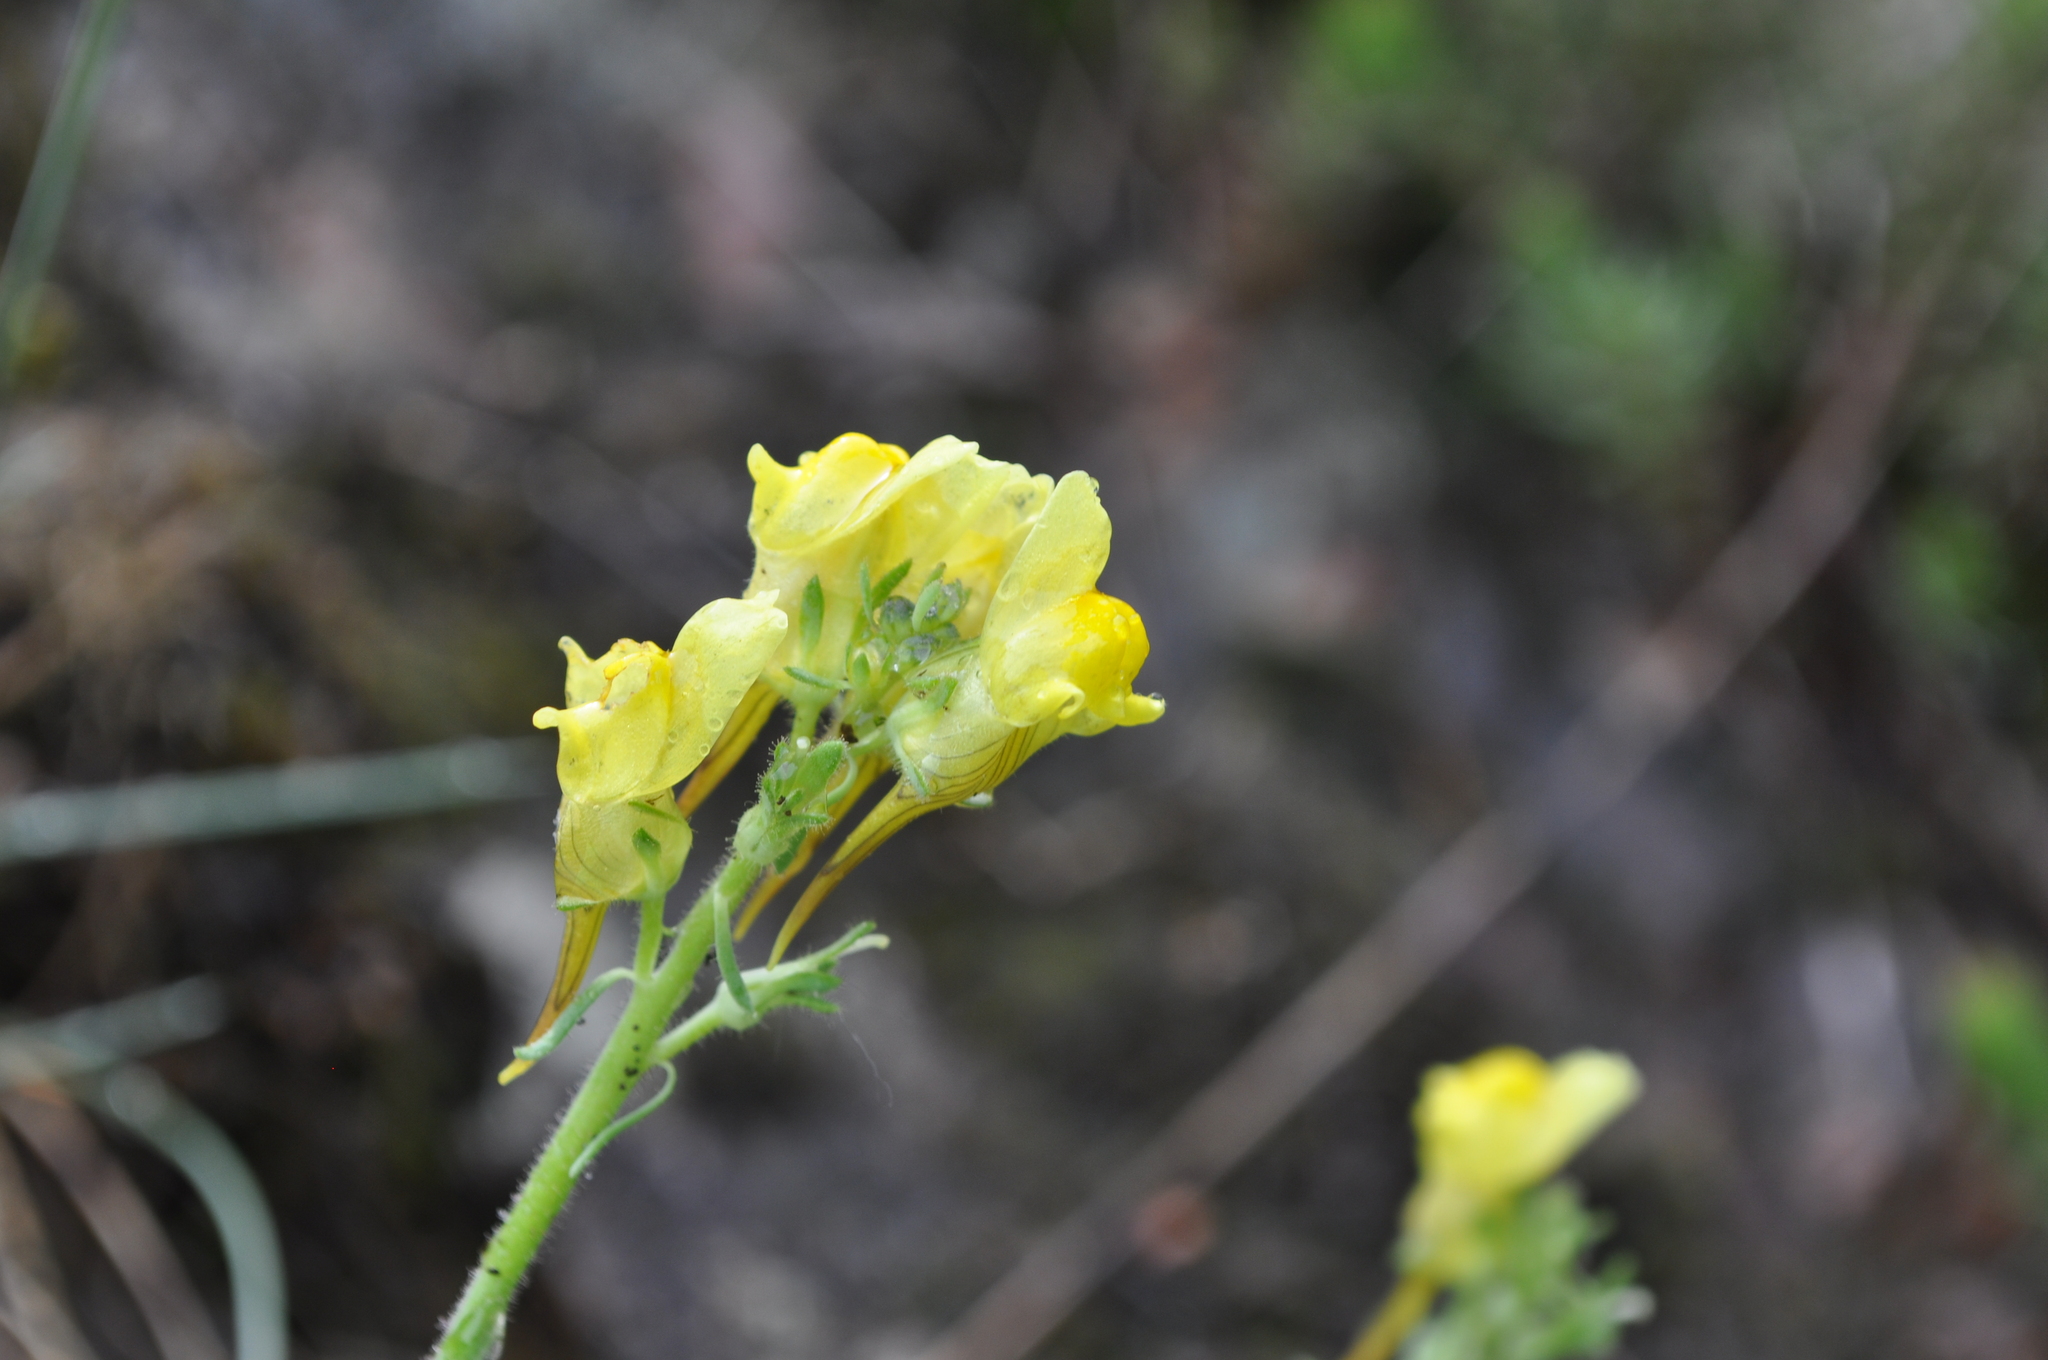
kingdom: Plantae
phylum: Tracheophyta
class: Magnoliopsida
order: Lamiales
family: Plantaginaceae
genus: Linaria
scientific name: Linaria supina
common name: Prostrate toadflax
